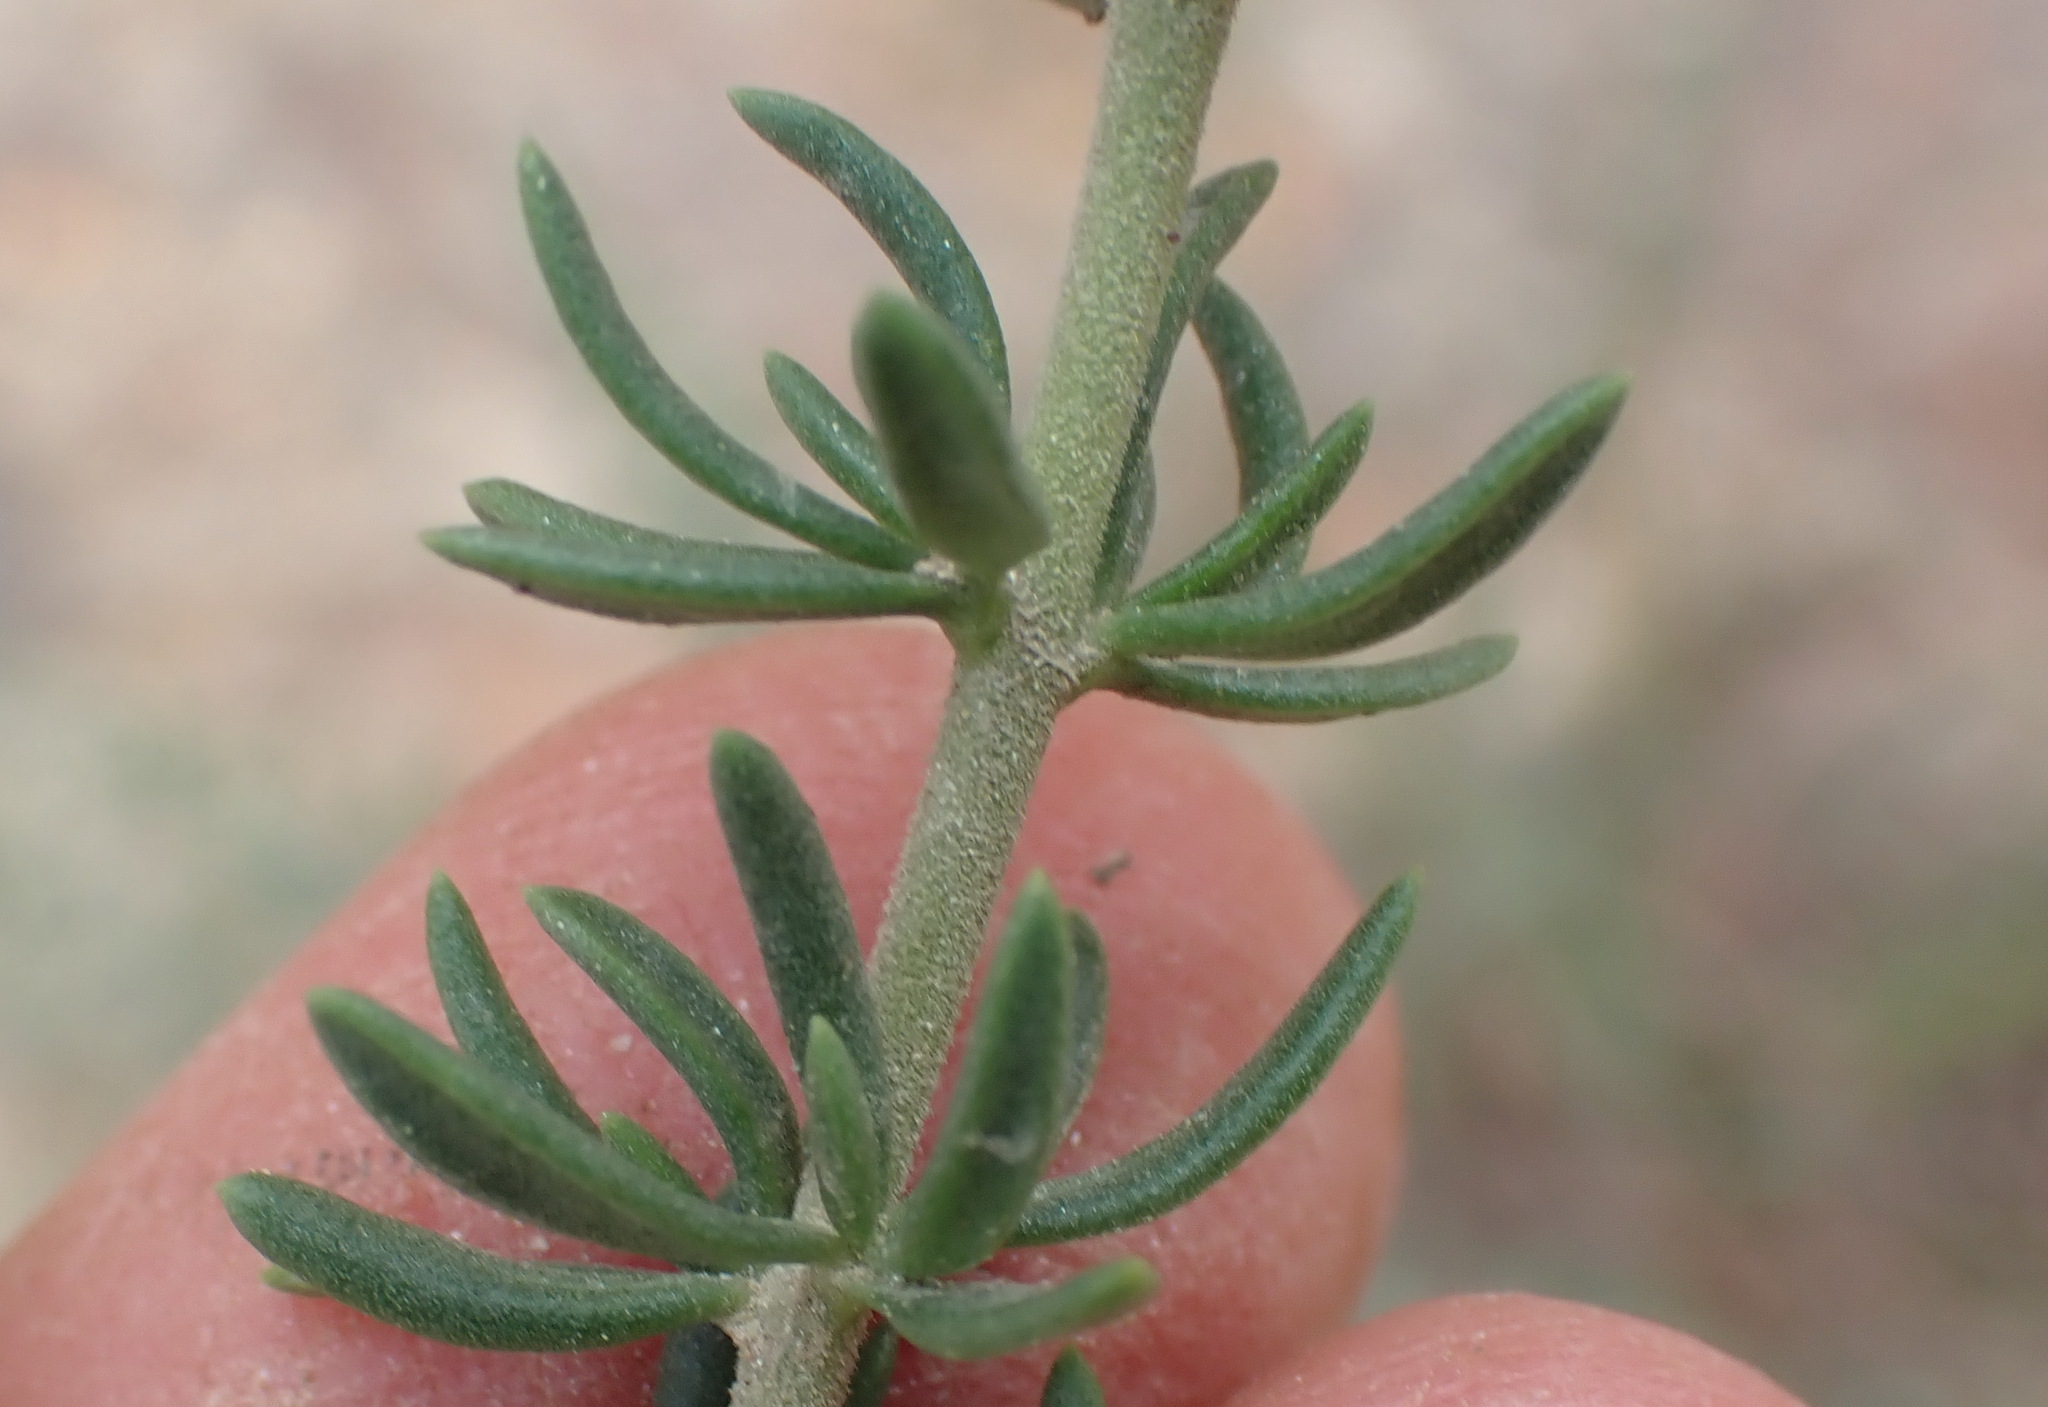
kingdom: Plantae
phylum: Tracheophyta
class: Magnoliopsida
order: Lamiales
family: Scrophulariaceae
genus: Selago
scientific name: Selago dolosa
